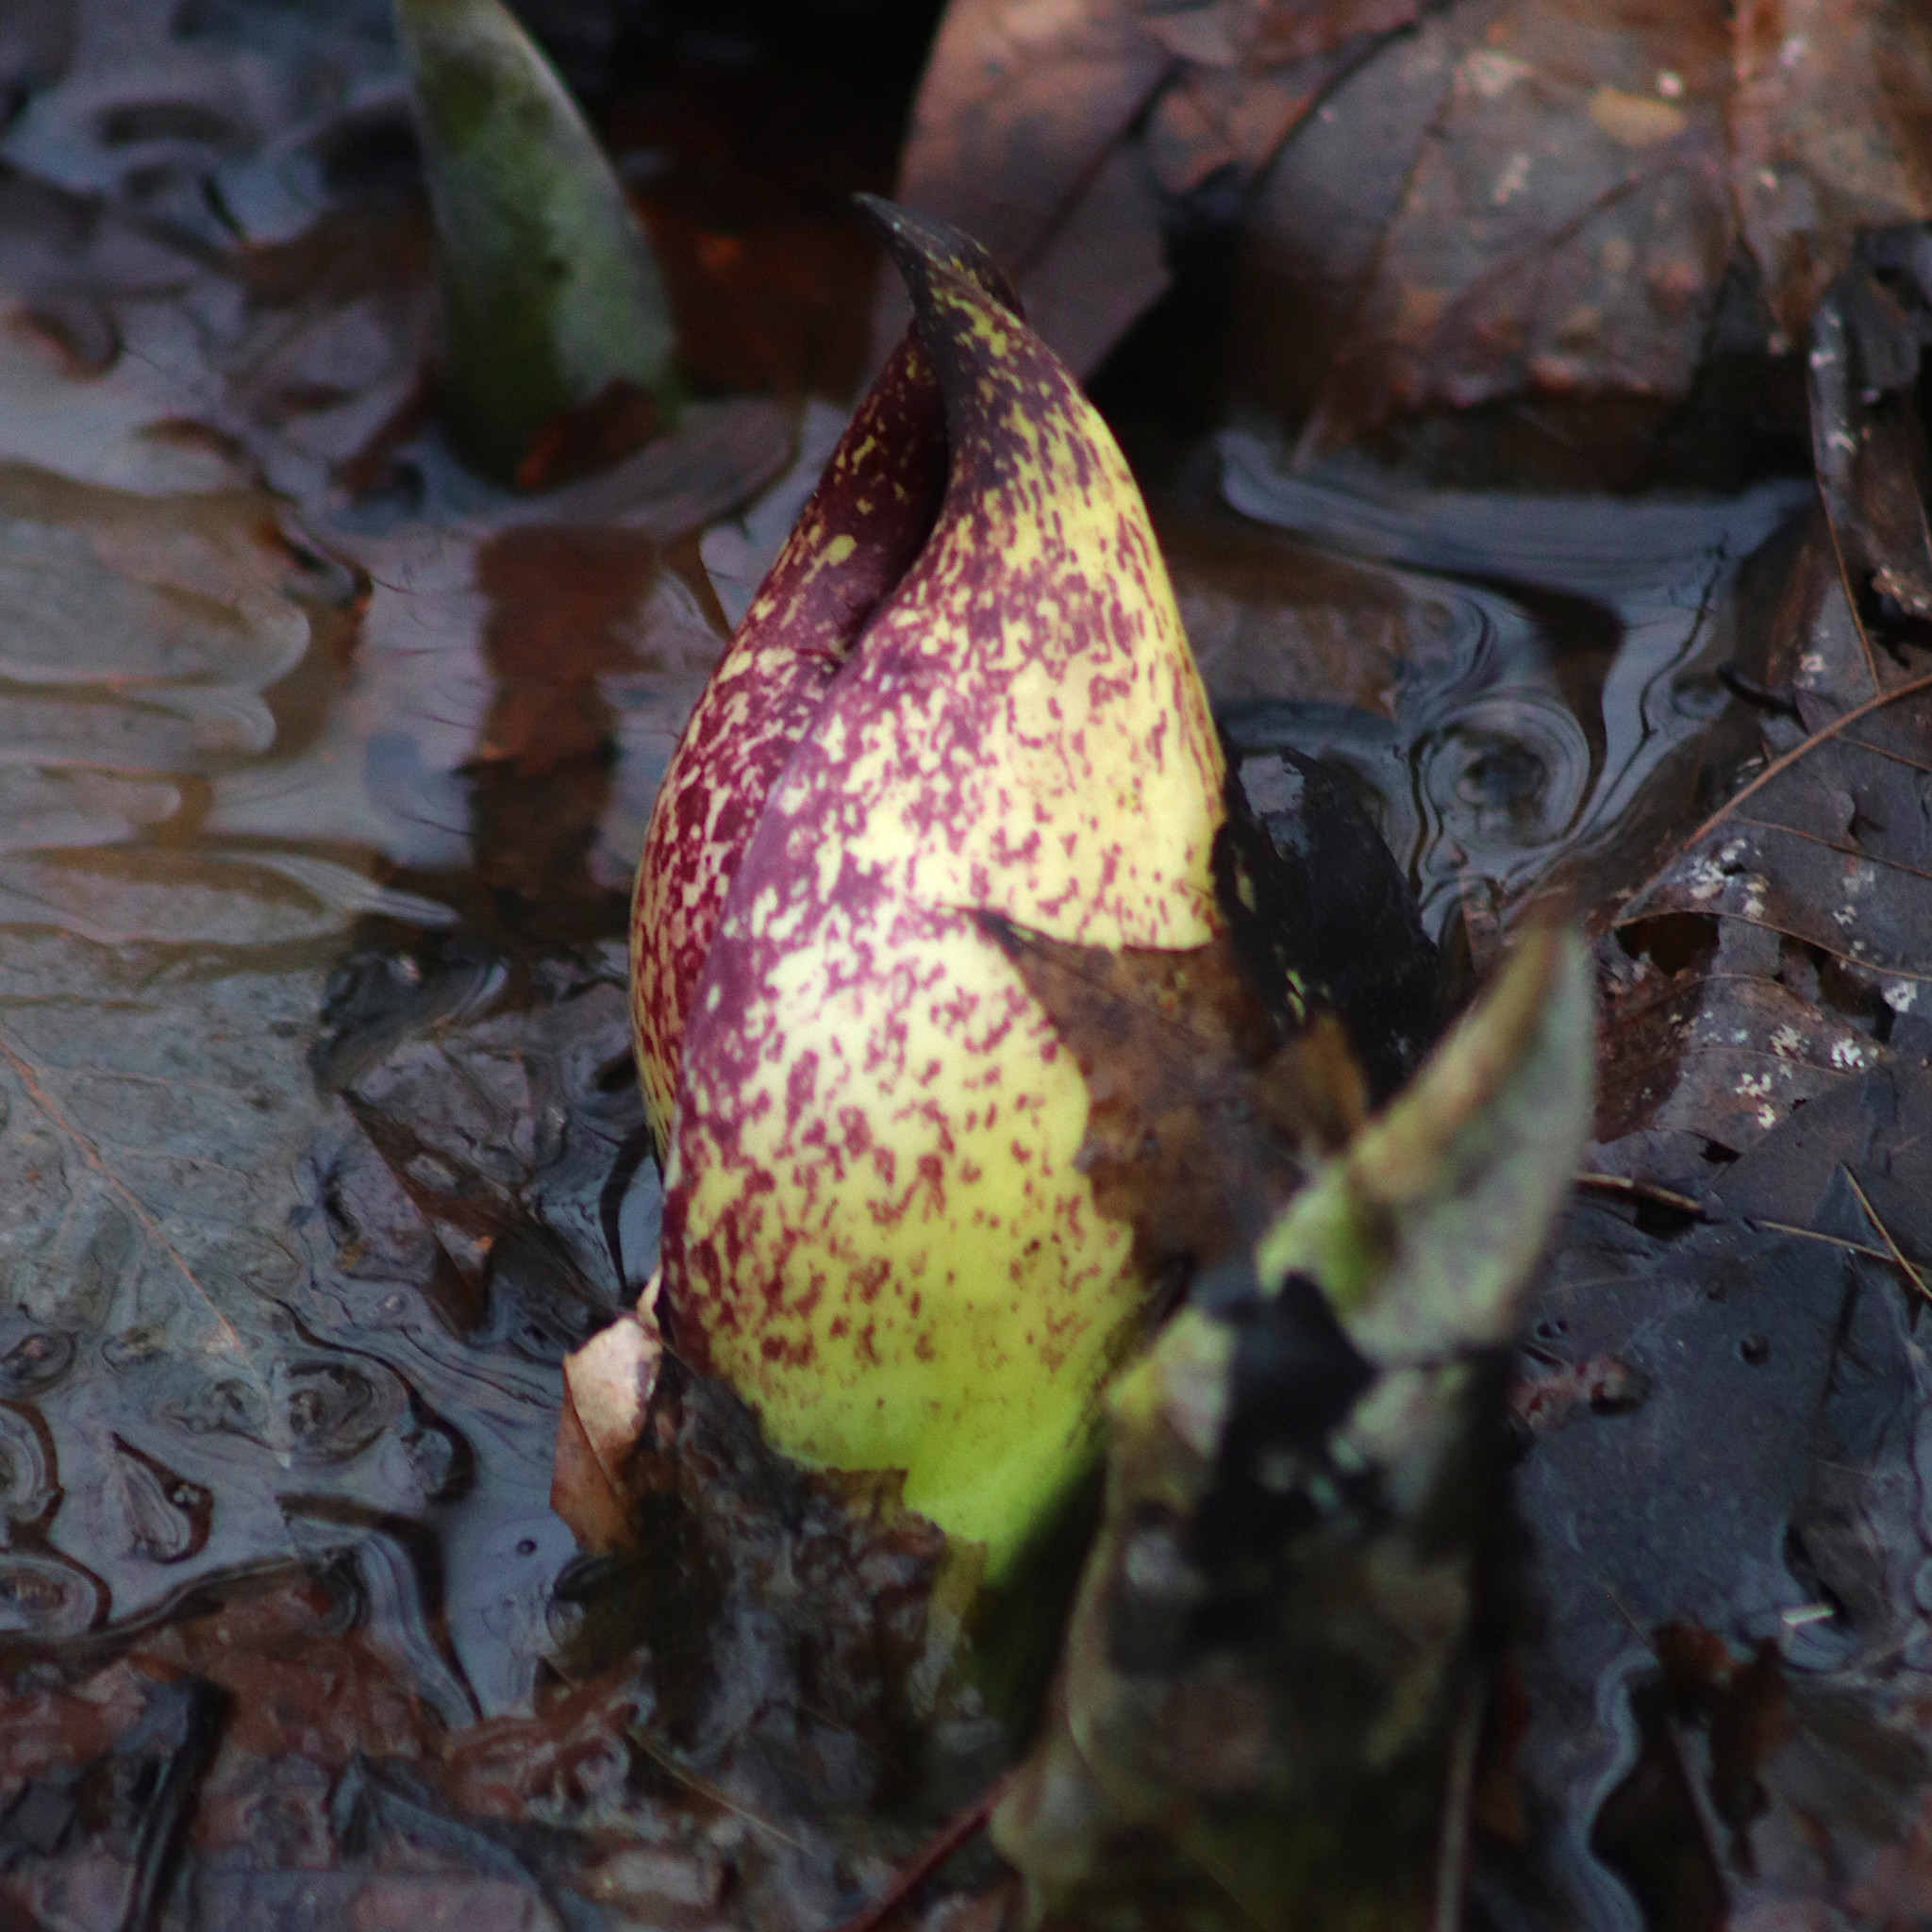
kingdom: Plantae
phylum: Tracheophyta
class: Liliopsida
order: Alismatales
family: Araceae
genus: Symplocarpus
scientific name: Symplocarpus foetidus
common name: Eastern skunk cabbage
